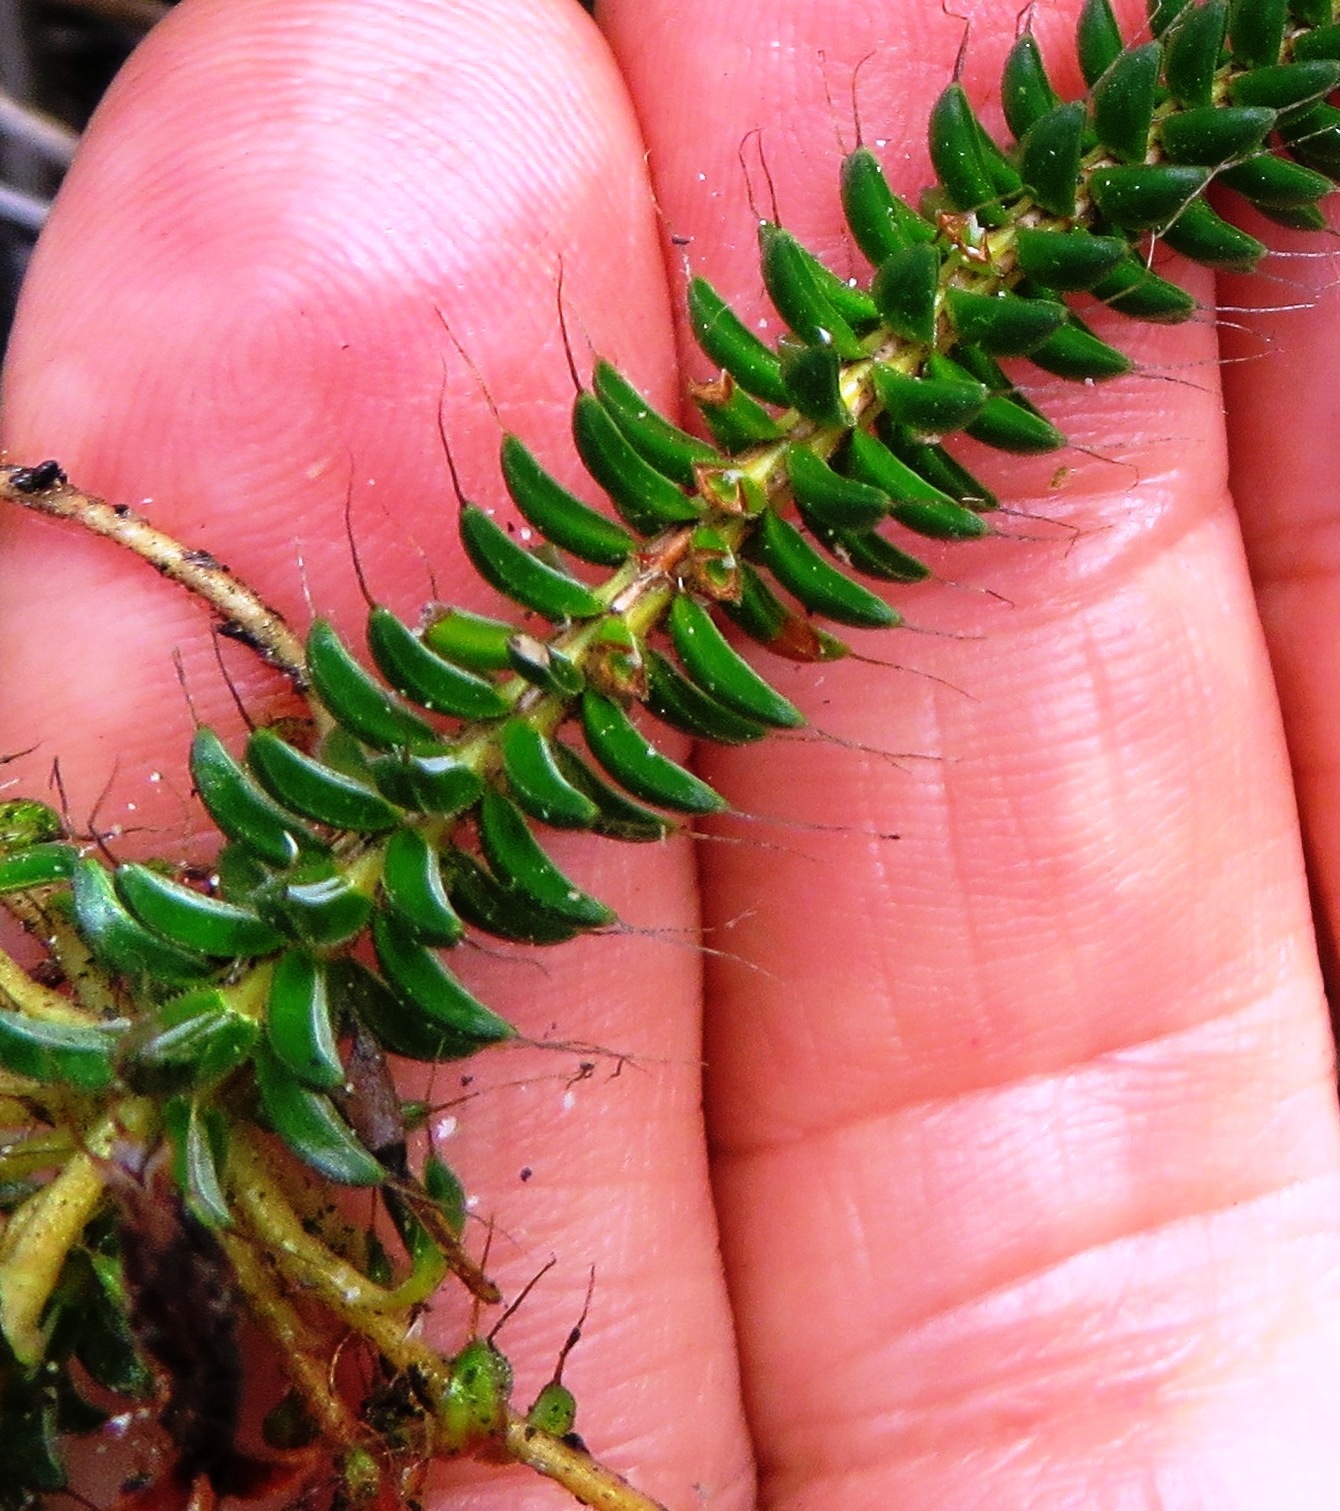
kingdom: Plantae
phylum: Tracheophyta
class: Magnoliopsida
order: Ericales
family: Ericaceae
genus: Erica
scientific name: Erica retorta
